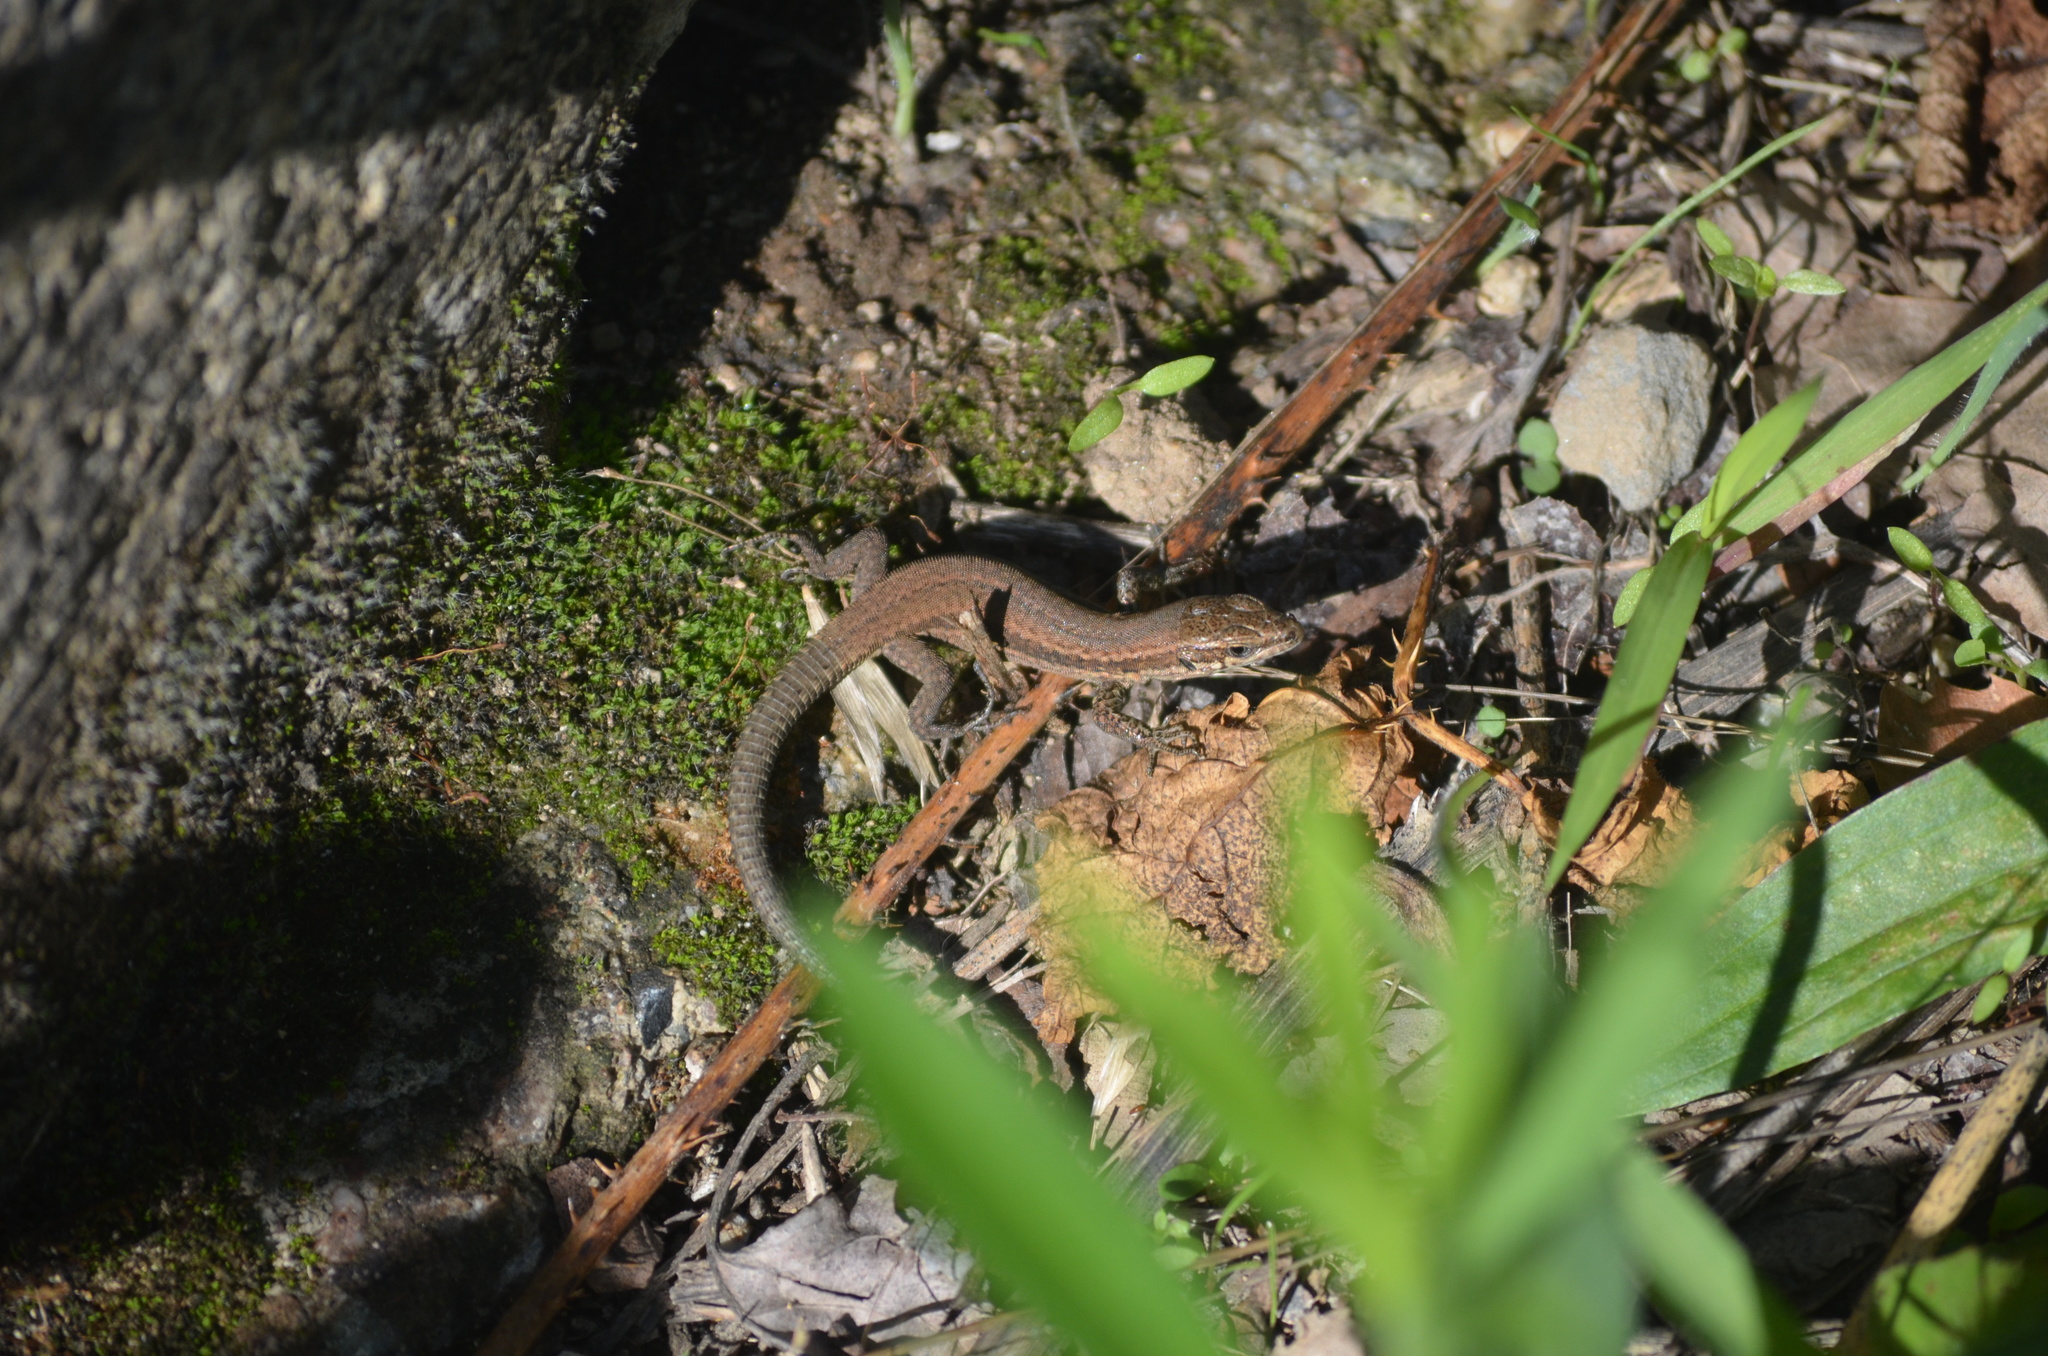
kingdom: Animalia
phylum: Chordata
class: Squamata
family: Lacertidae
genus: Podarcis
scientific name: Podarcis muralis
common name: Common wall lizard
